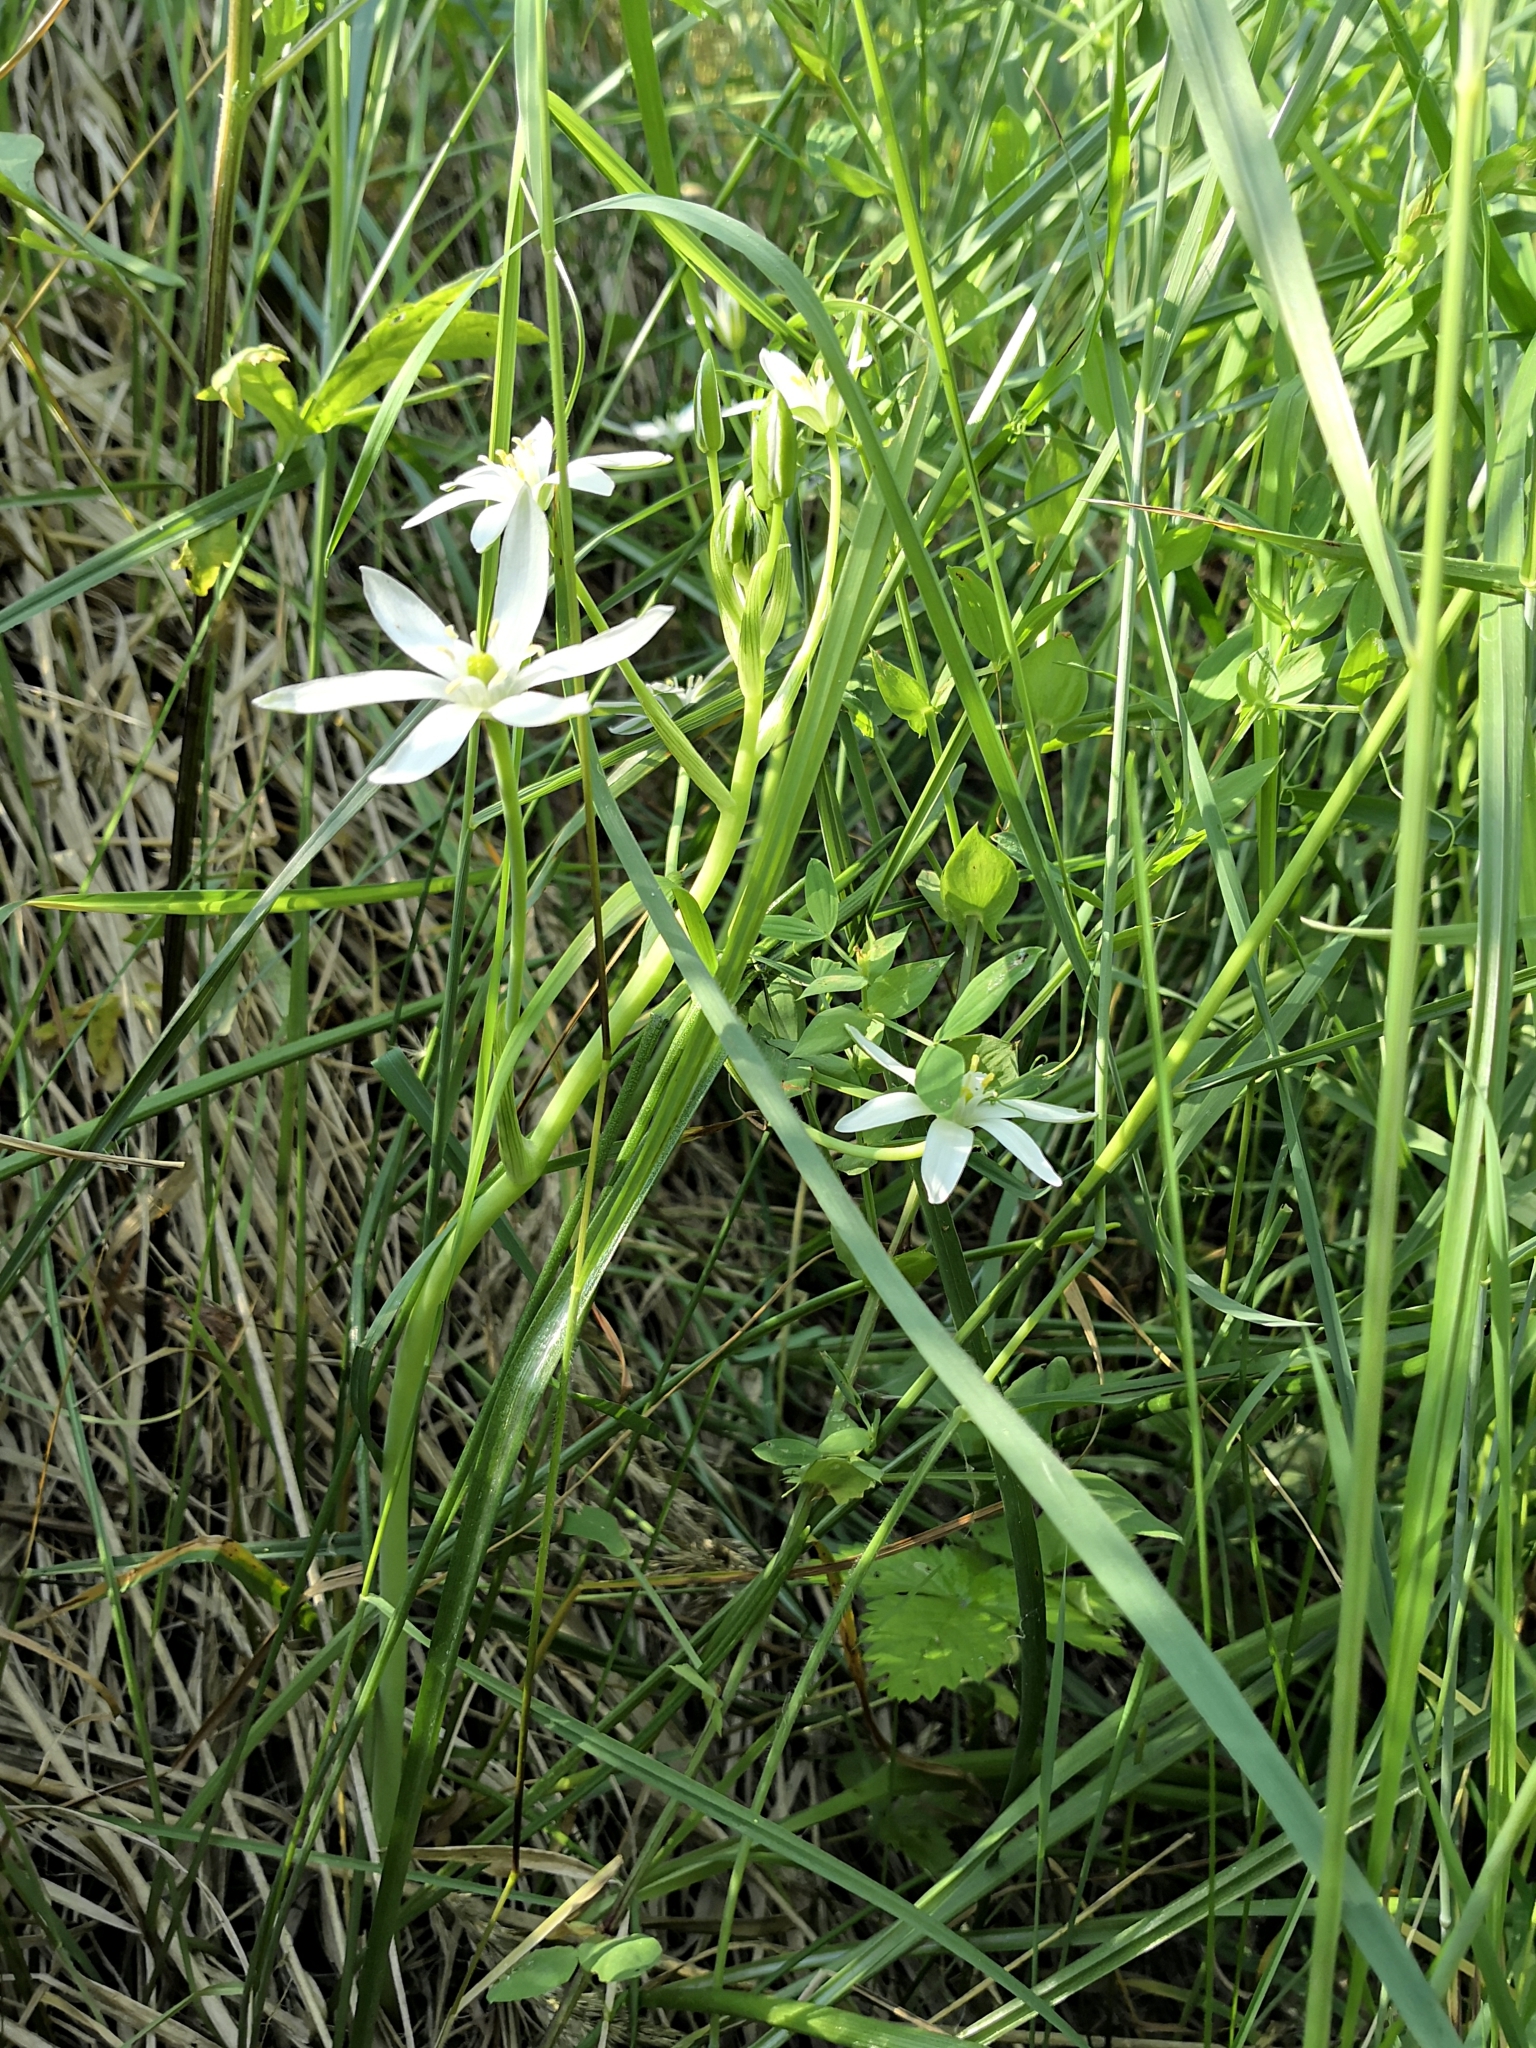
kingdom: Plantae
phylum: Tracheophyta
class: Liliopsida
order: Asparagales
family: Asparagaceae
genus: Ornithogalum
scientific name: Ornithogalum umbellatum
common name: Garden star-of-bethlehem
